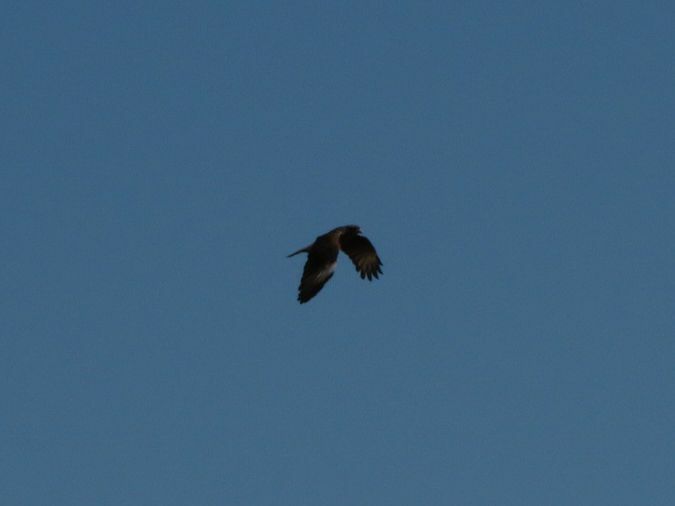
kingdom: Animalia
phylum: Chordata
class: Aves
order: Falconiformes
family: Falconidae
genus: Daptrius
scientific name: Daptrius
